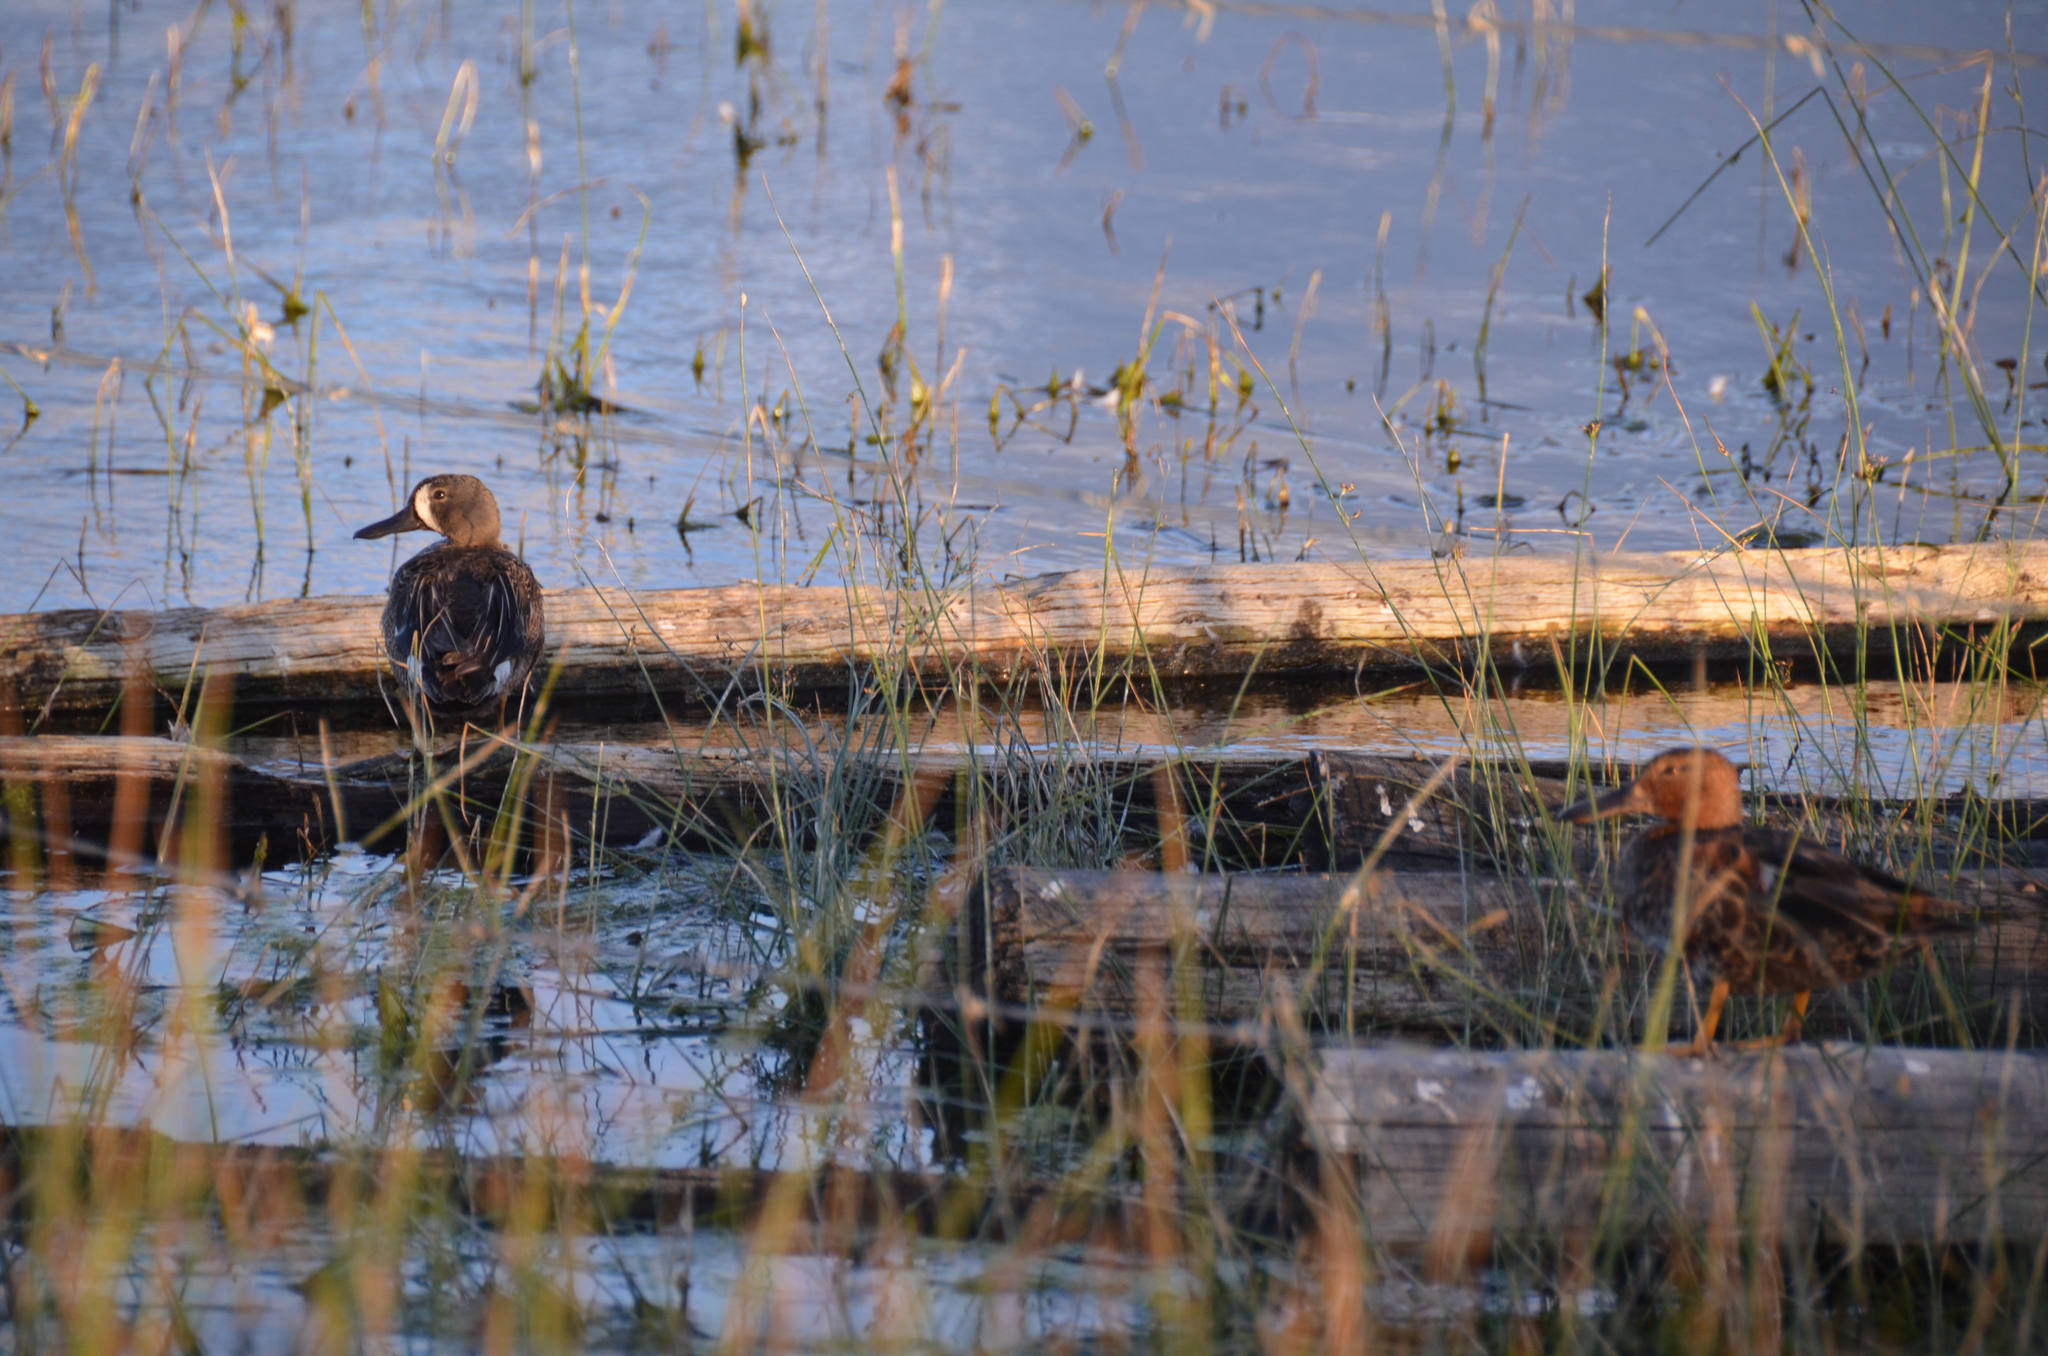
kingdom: Animalia
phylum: Chordata
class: Aves
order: Anseriformes
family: Anatidae
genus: Spatula
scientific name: Spatula discors
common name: Blue-winged teal
